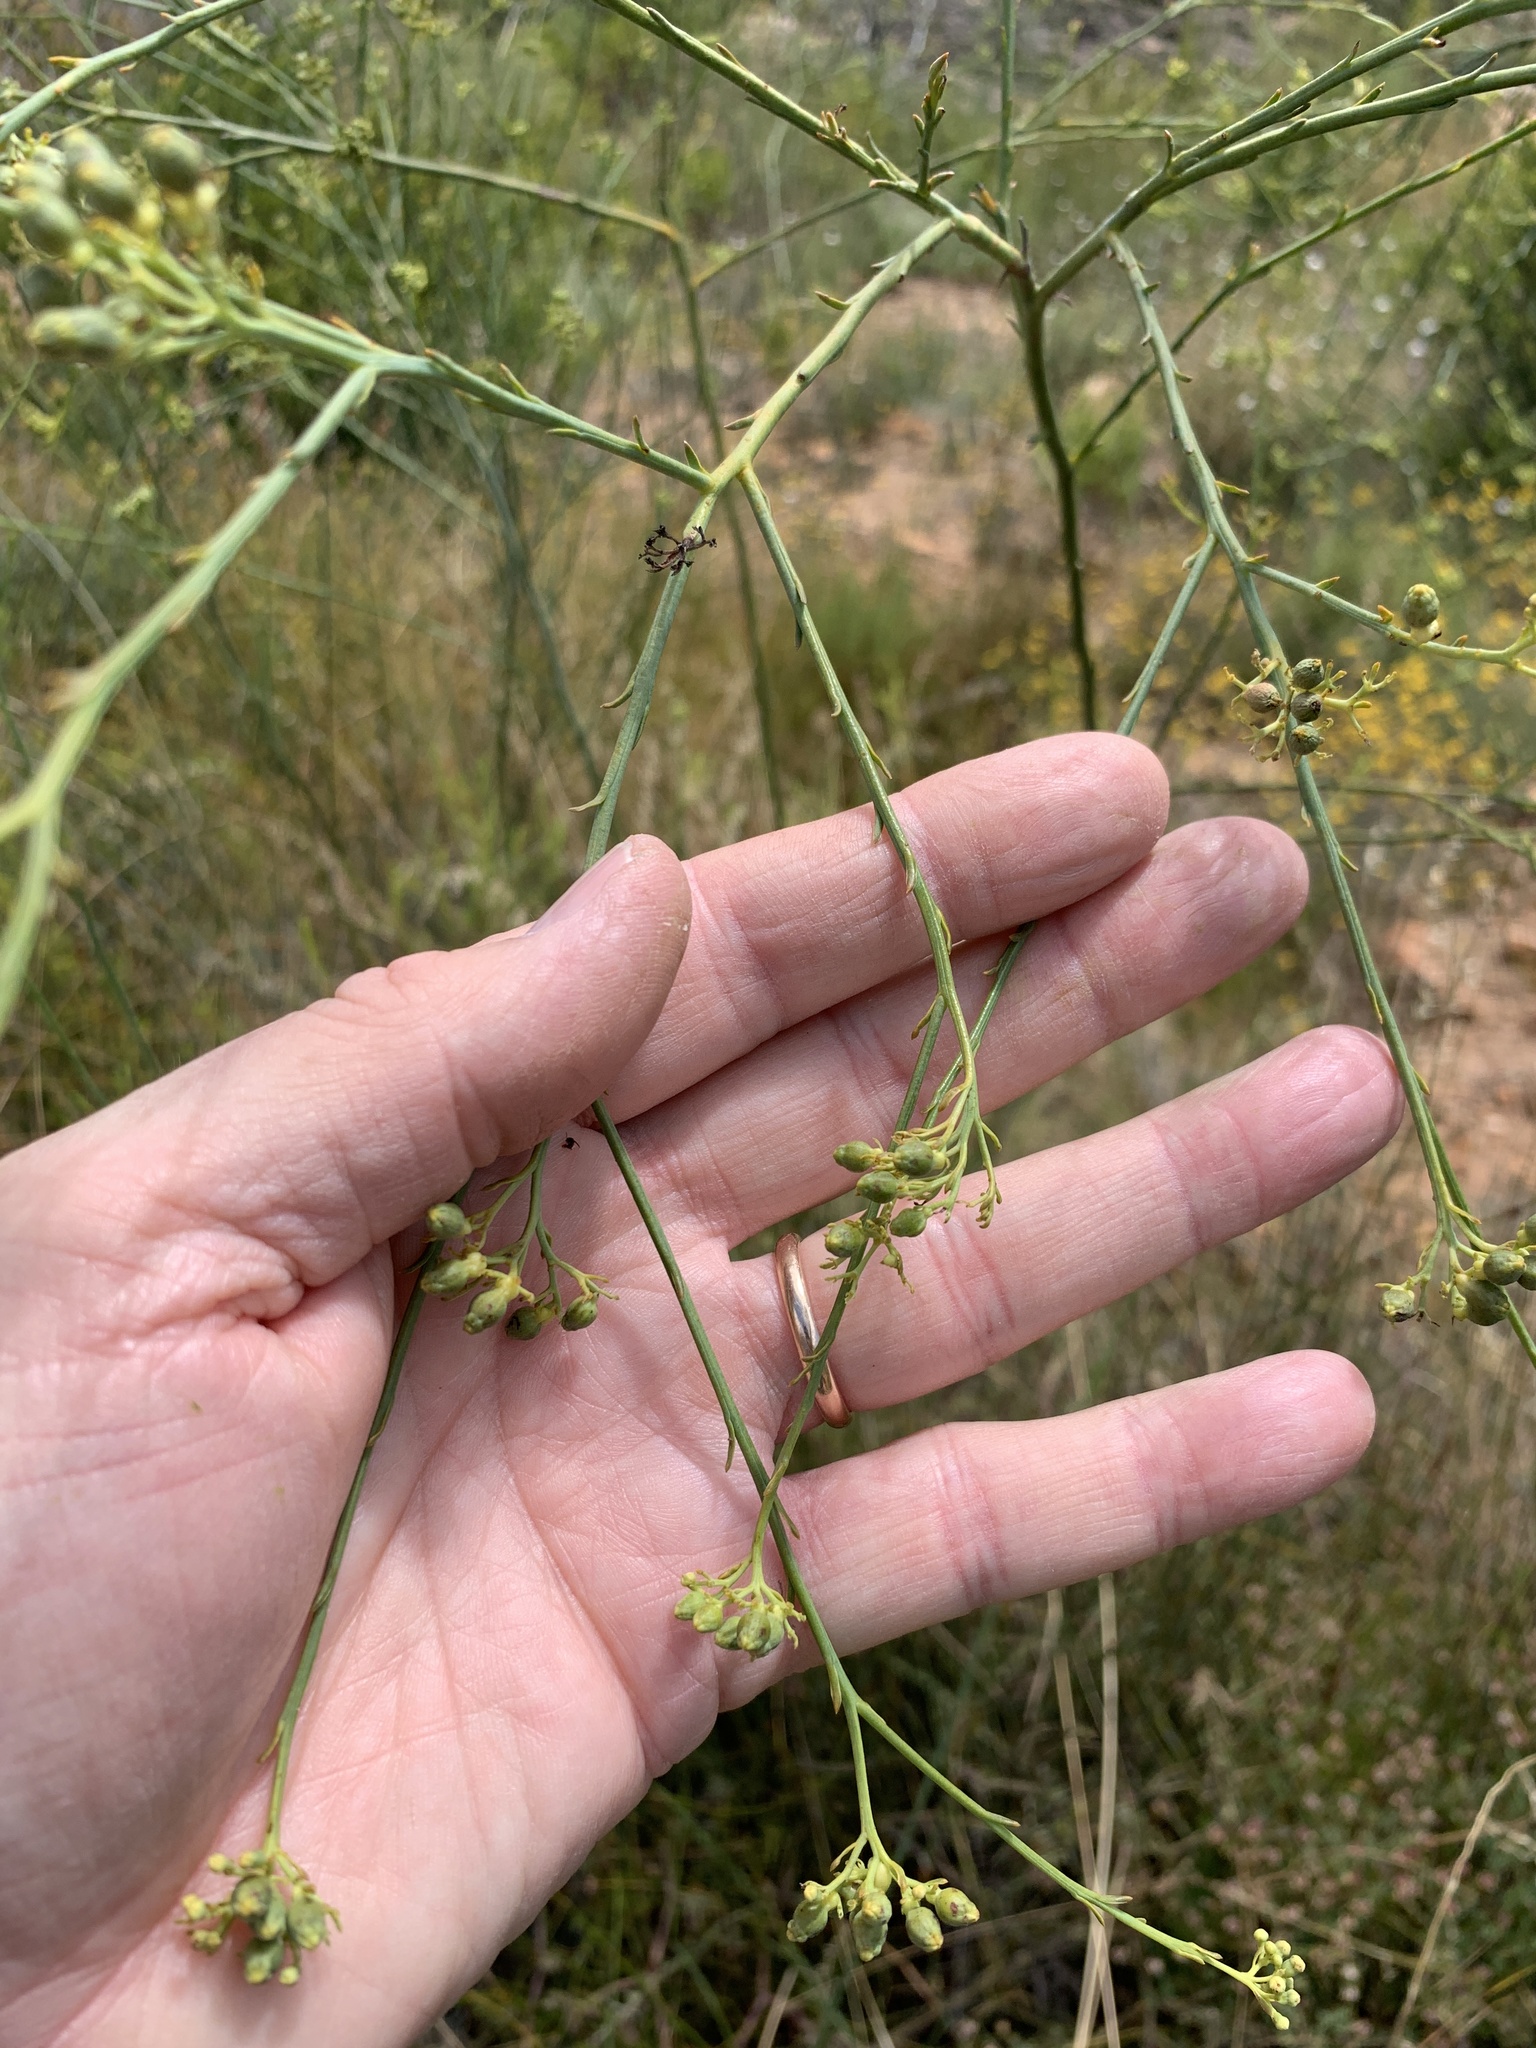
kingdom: Plantae
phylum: Tracheophyta
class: Magnoliopsida
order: Santalales
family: Thesiaceae
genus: Thesium
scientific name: Thesium strictum
